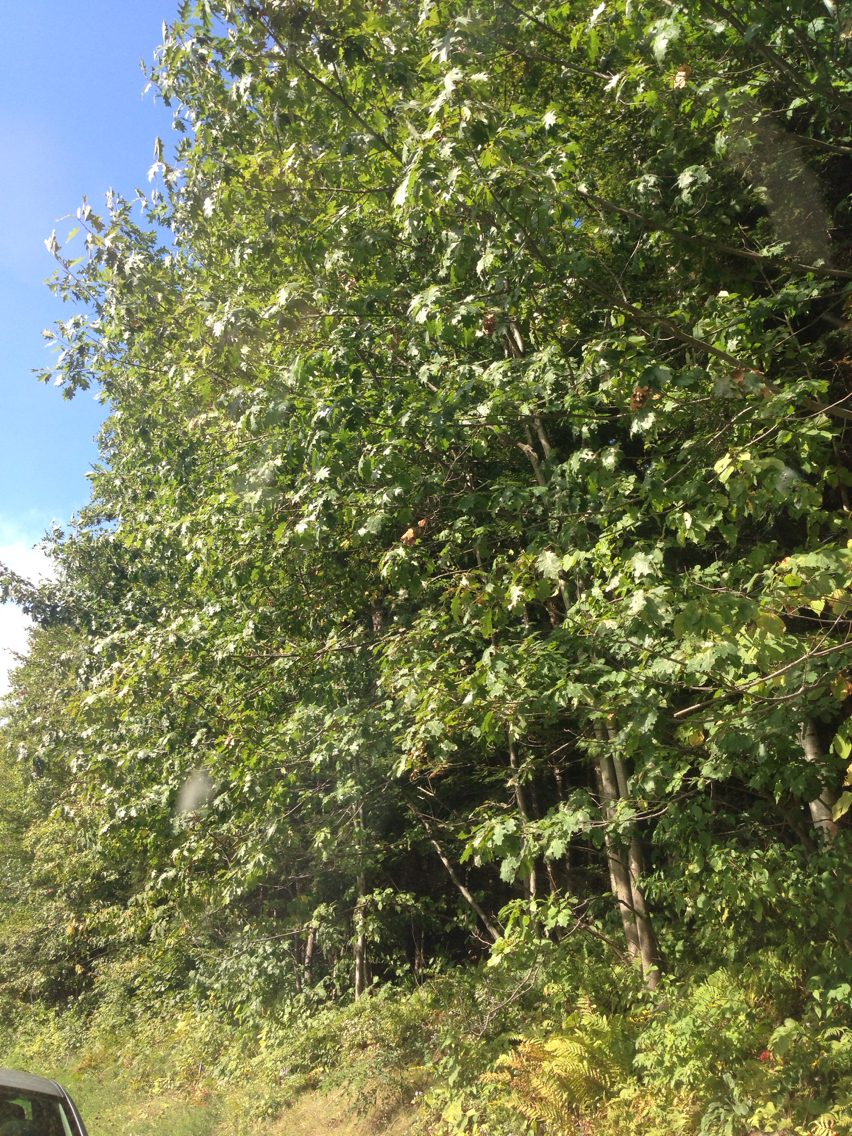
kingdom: Plantae
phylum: Tracheophyta
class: Magnoliopsida
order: Fagales
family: Fagaceae
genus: Quercus
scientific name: Quercus rubra
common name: Red oak
